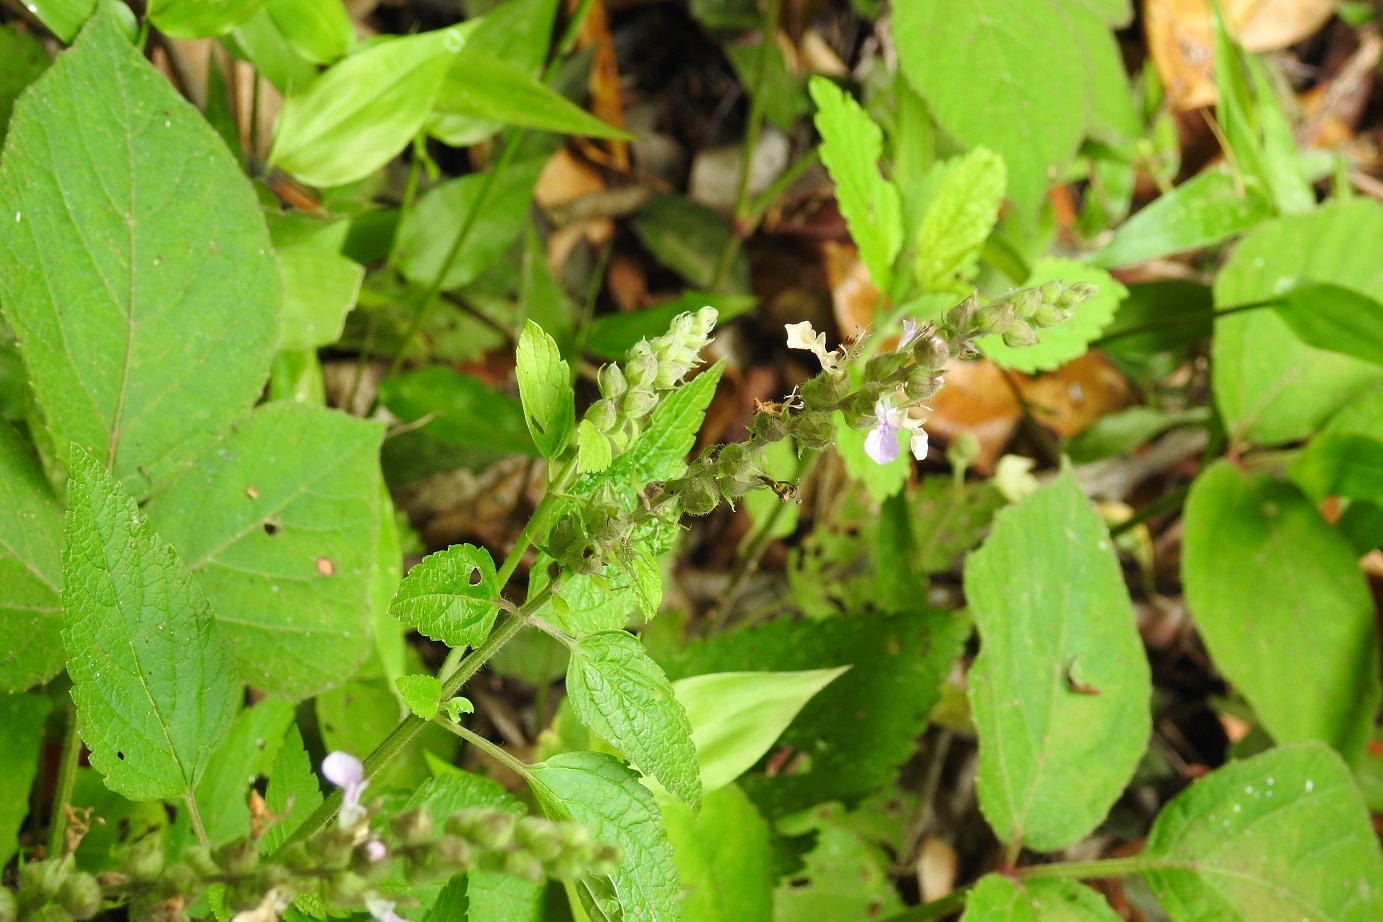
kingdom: Plantae
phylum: Tracheophyta
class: Magnoliopsida
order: Lamiales
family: Lamiaceae
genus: Teucrium
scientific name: Teucrium vesicarium
